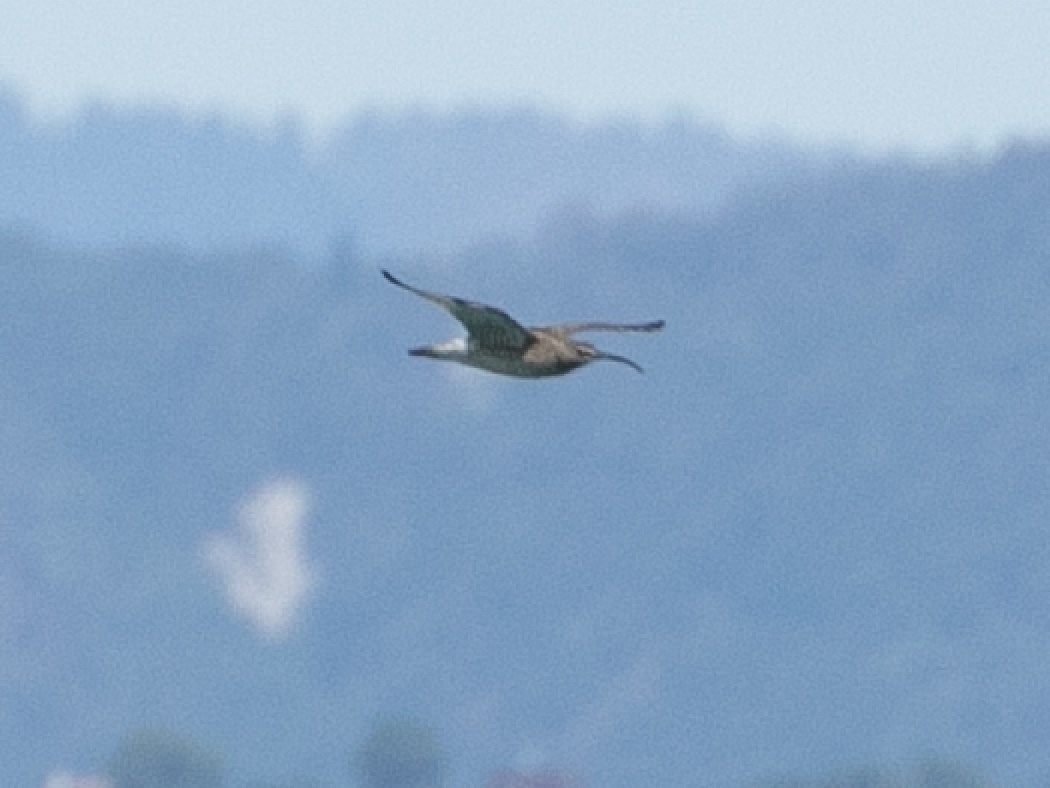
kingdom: Animalia
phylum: Chordata
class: Aves
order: Charadriiformes
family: Scolopacidae
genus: Numenius
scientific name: Numenius phaeopus
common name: Whimbrel
